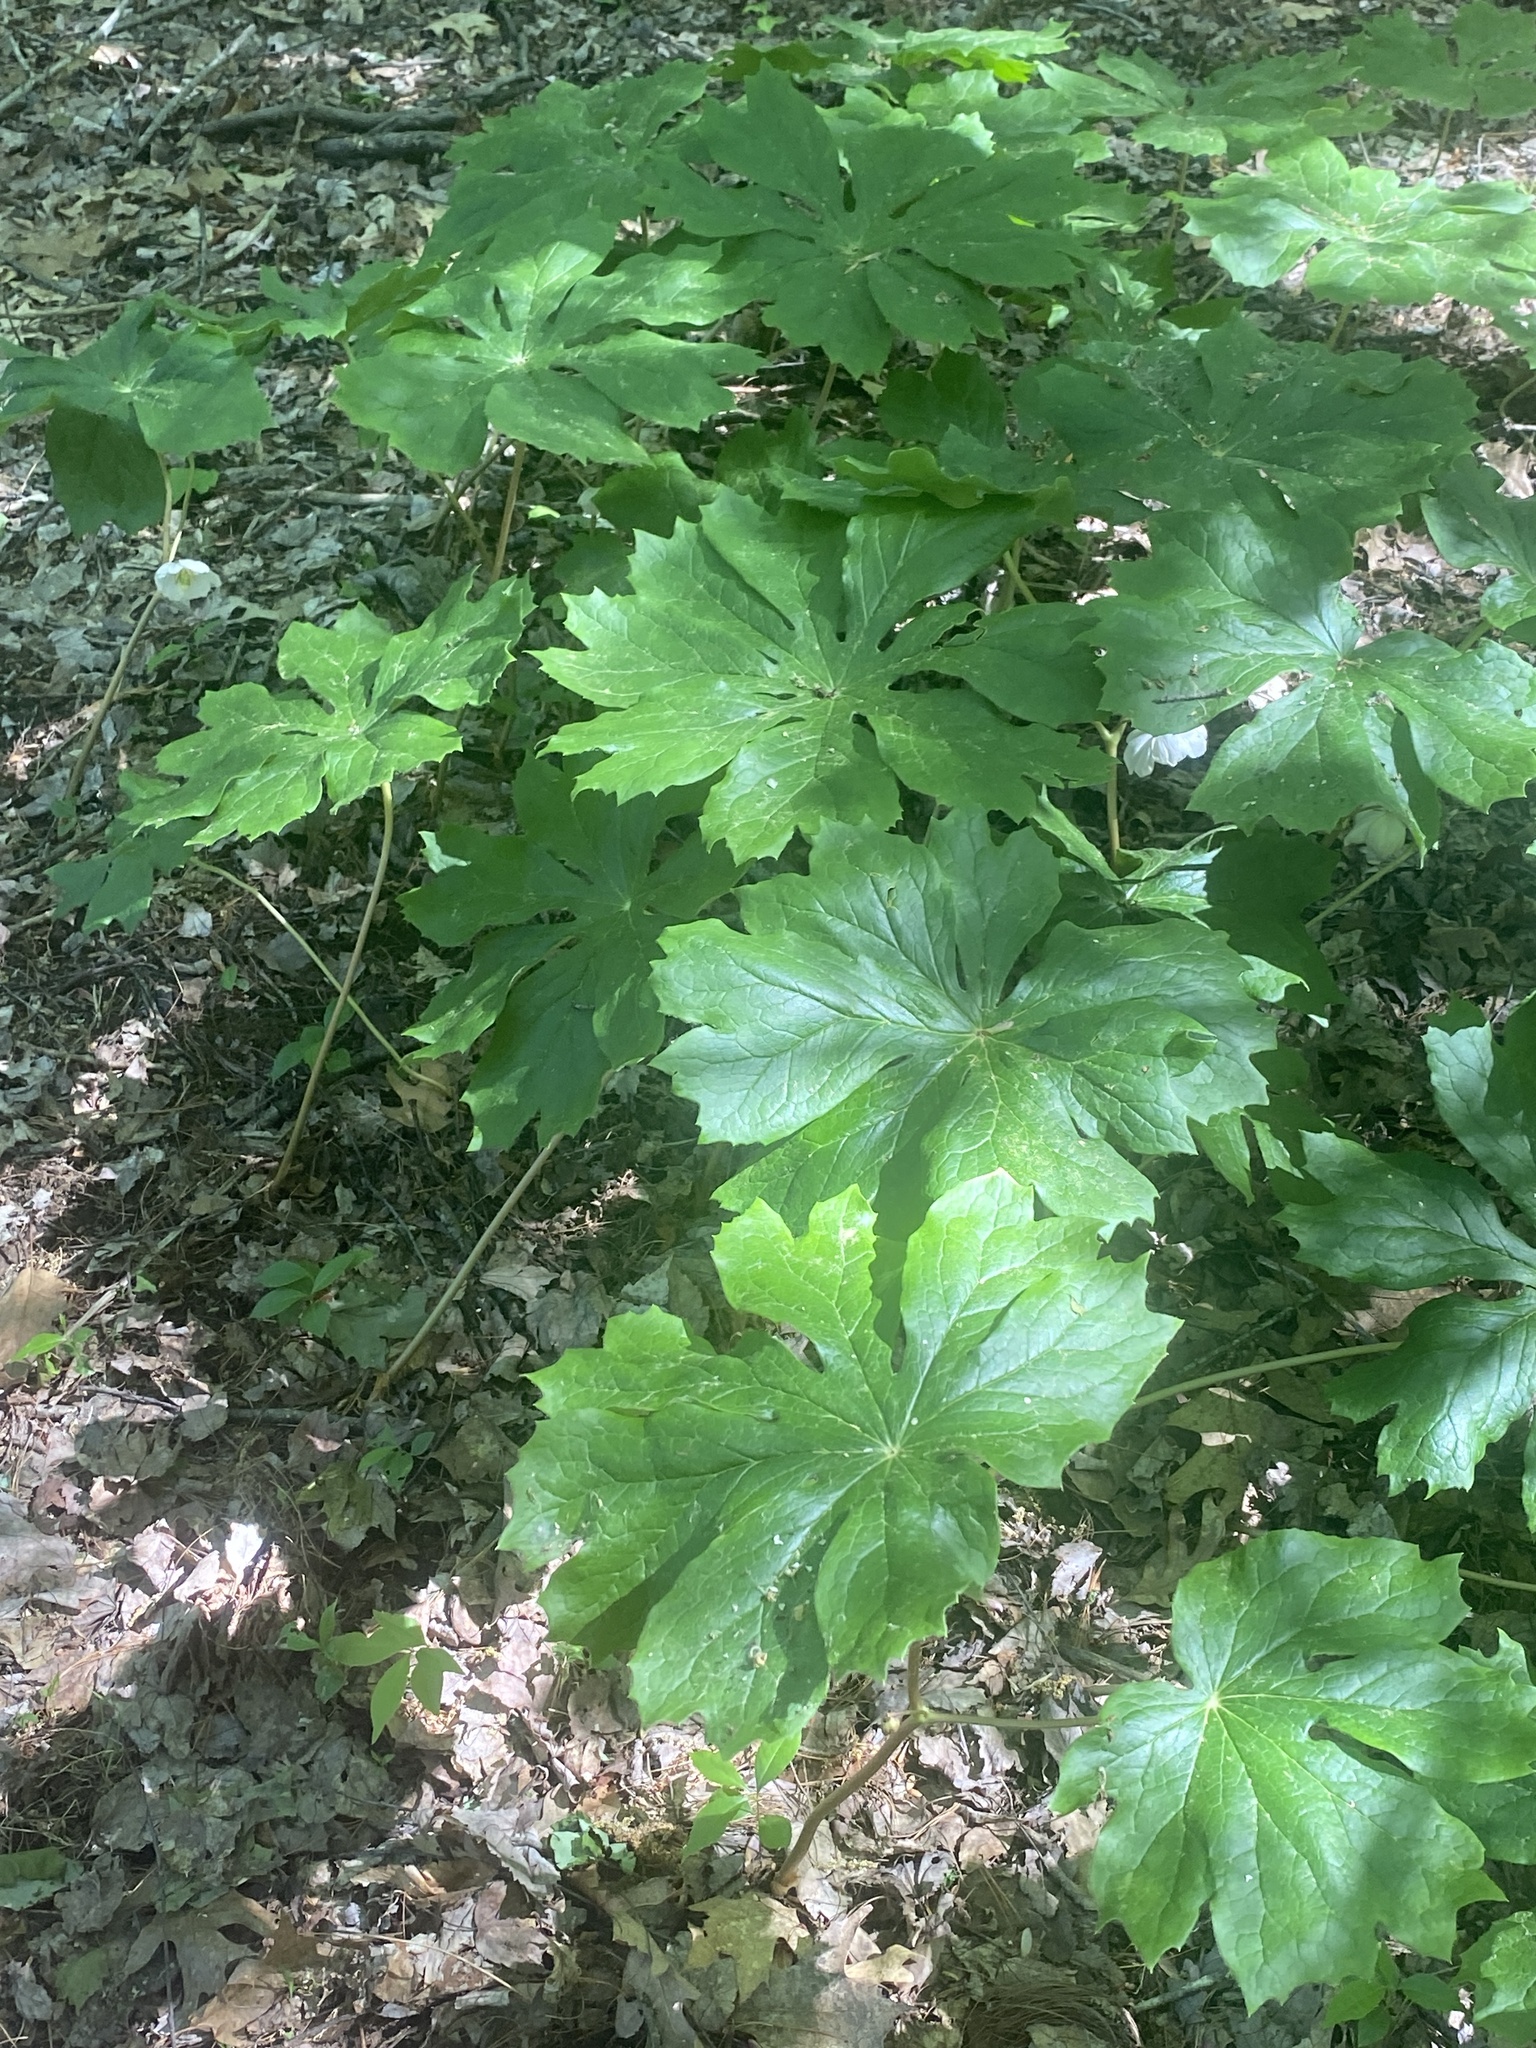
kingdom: Plantae
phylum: Tracheophyta
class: Magnoliopsida
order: Ranunculales
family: Berberidaceae
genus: Podophyllum
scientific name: Podophyllum peltatum
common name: Wild mandrake
